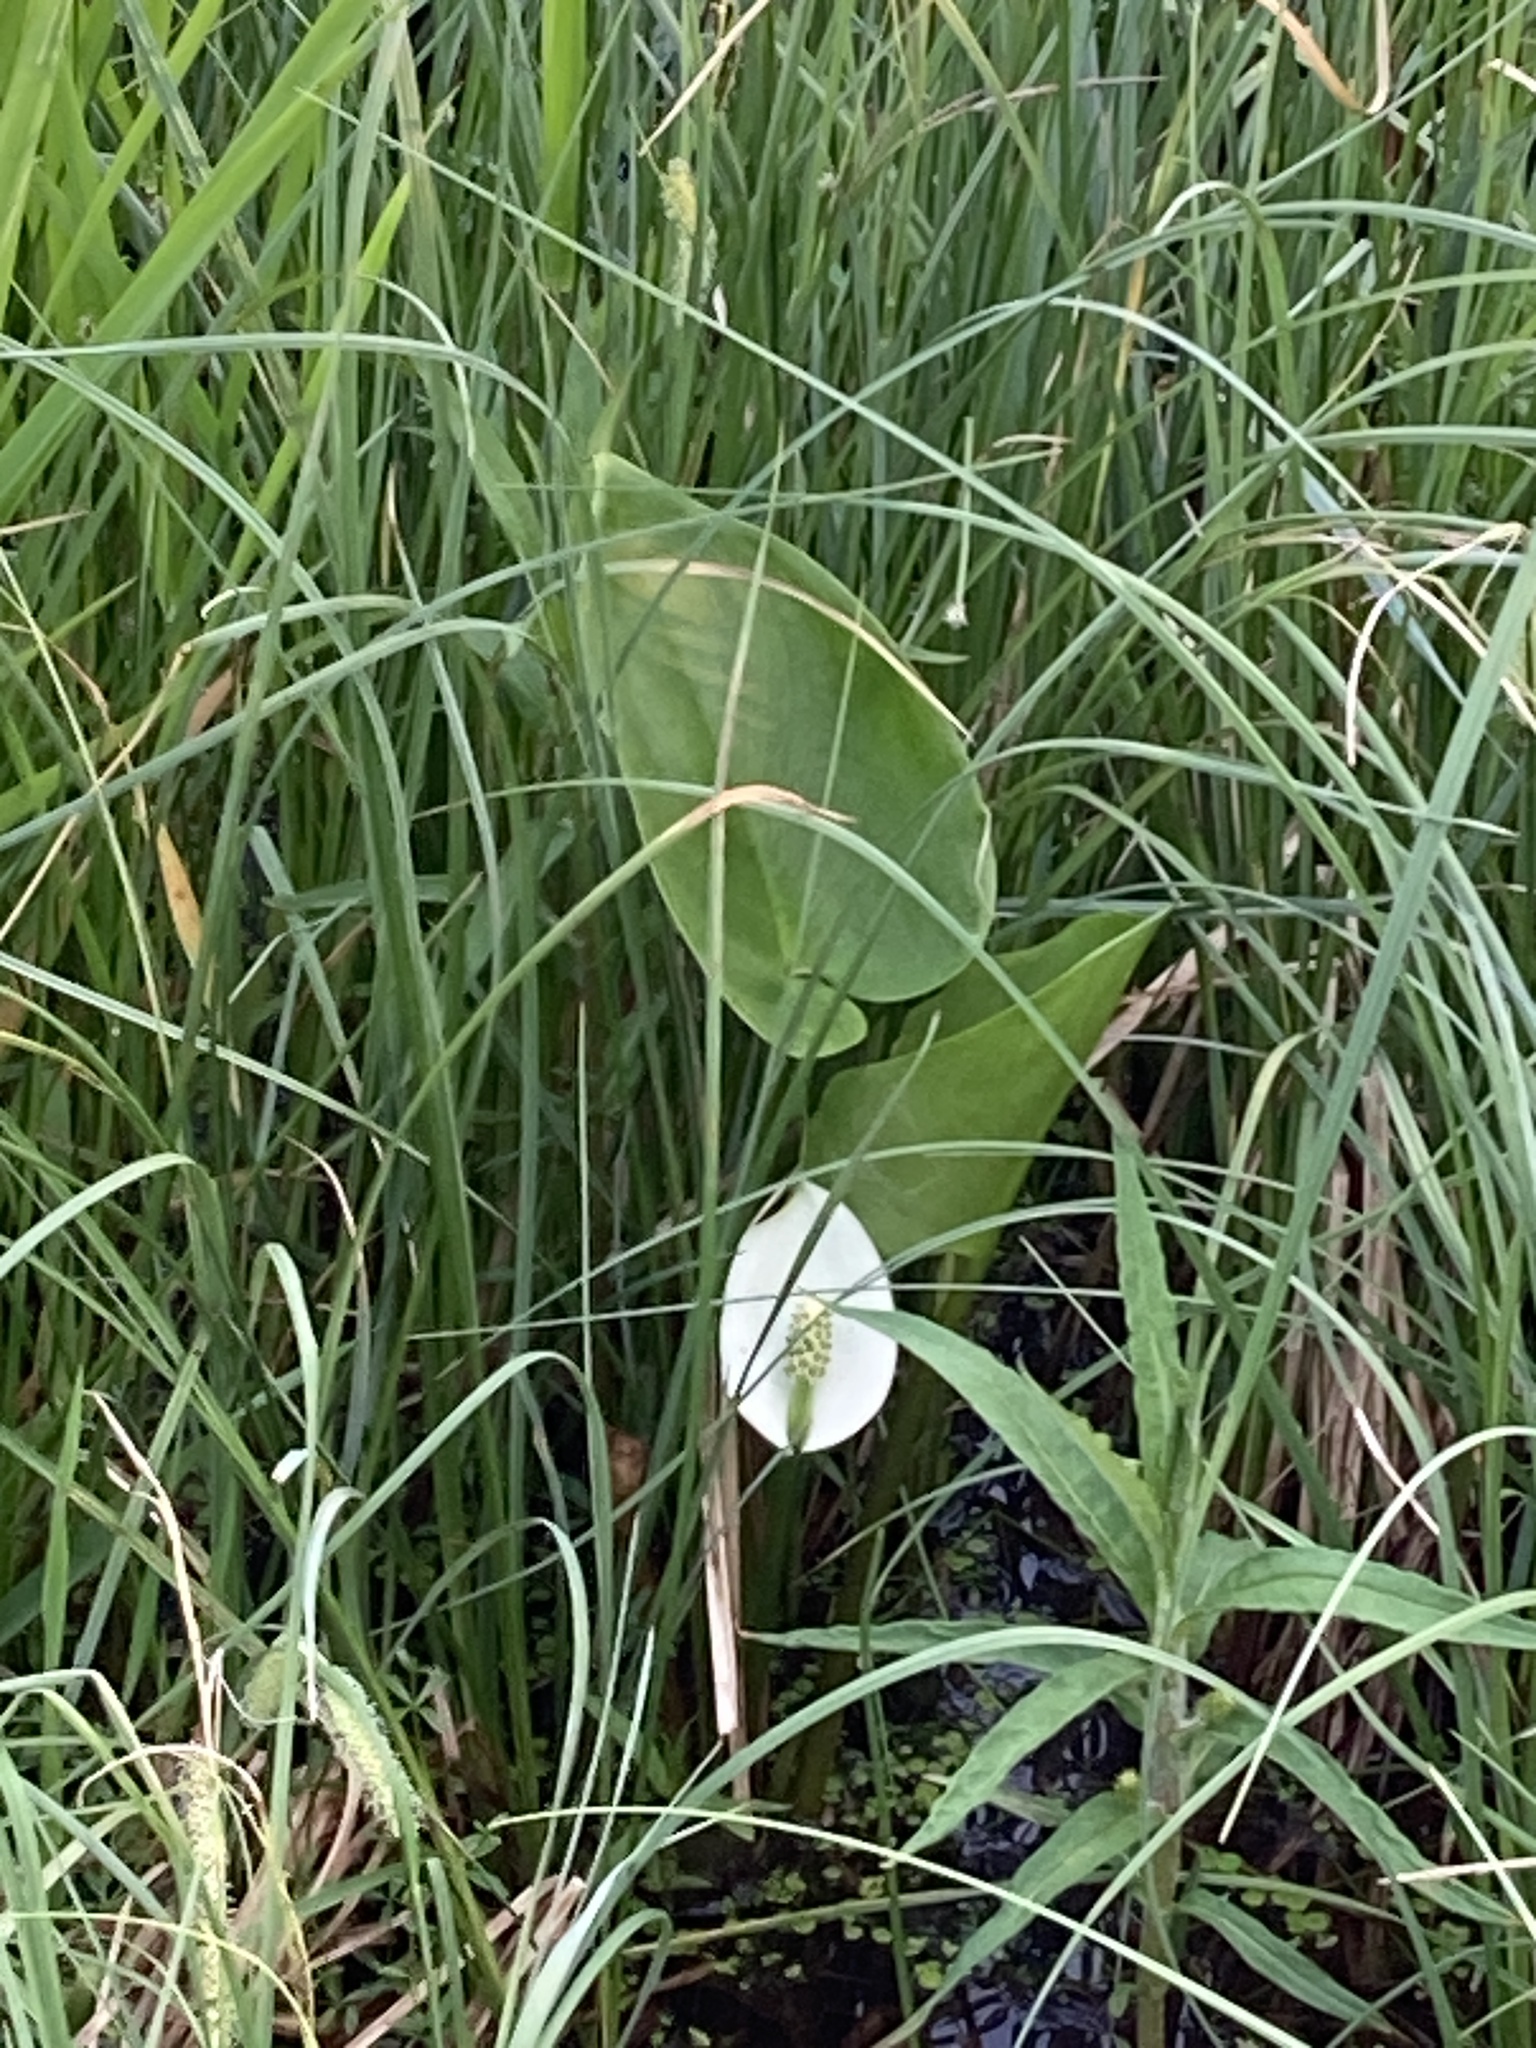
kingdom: Plantae
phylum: Tracheophyta
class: Liliopsida
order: Alismatales
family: Araceae
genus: Calla
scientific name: Calla palustris
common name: Bog arum
